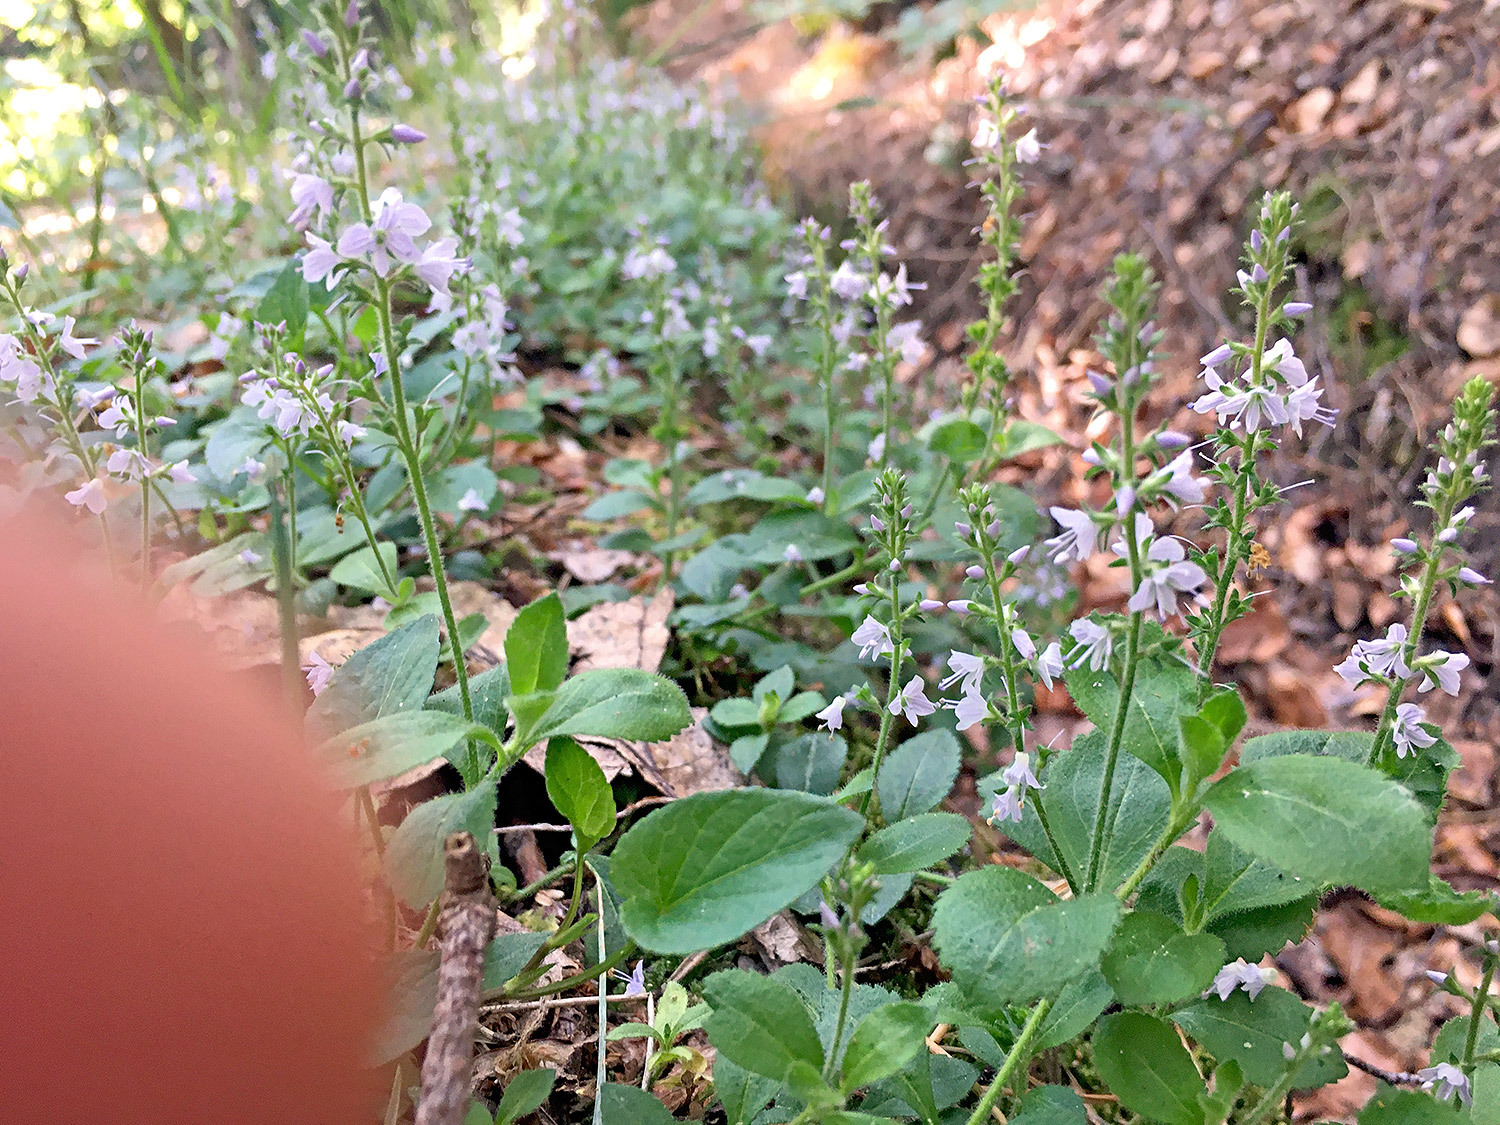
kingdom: Plantae
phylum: Tracheophyta
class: Magnoliopsida
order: Lamiales
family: Plantaginaceae
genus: Veronica
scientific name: Veronica officinalis
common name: Common speedwell
